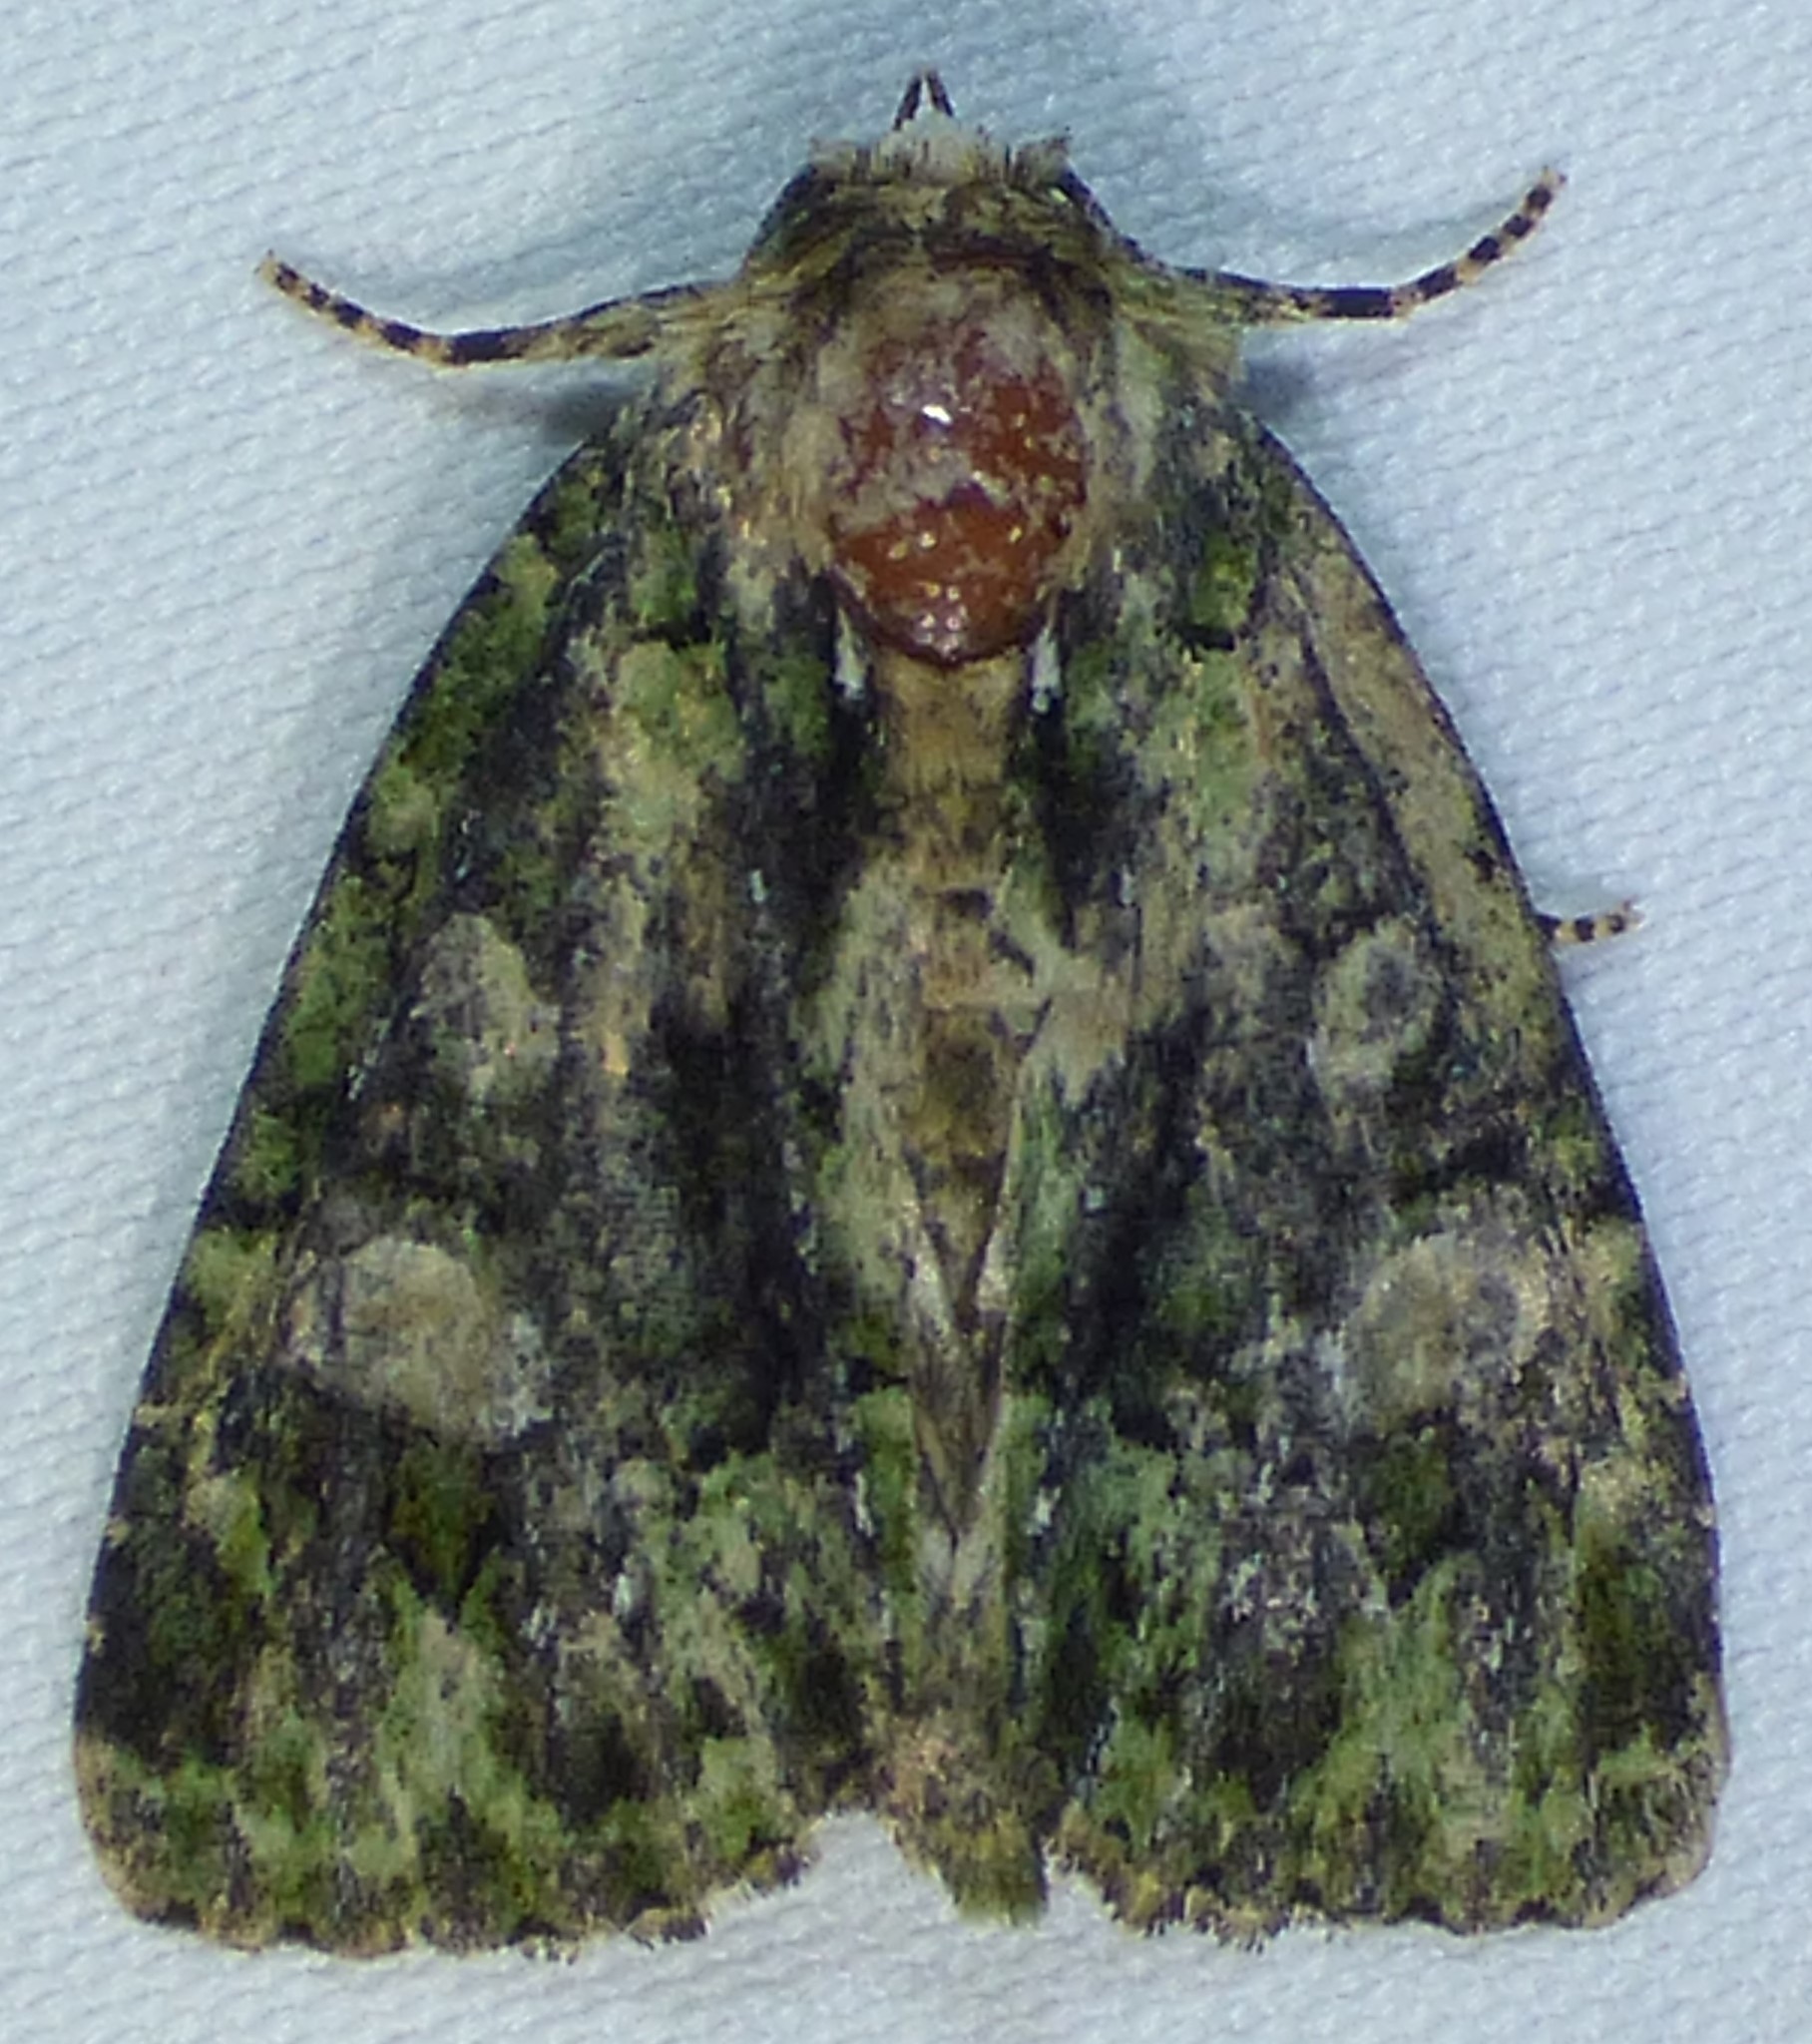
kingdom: Animalia
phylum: Arthropoda
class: Insecta
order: Lepidoptera
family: Noctuidae
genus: Phosphila
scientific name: Phosphila miselioides
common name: Spotted phosphila moth
